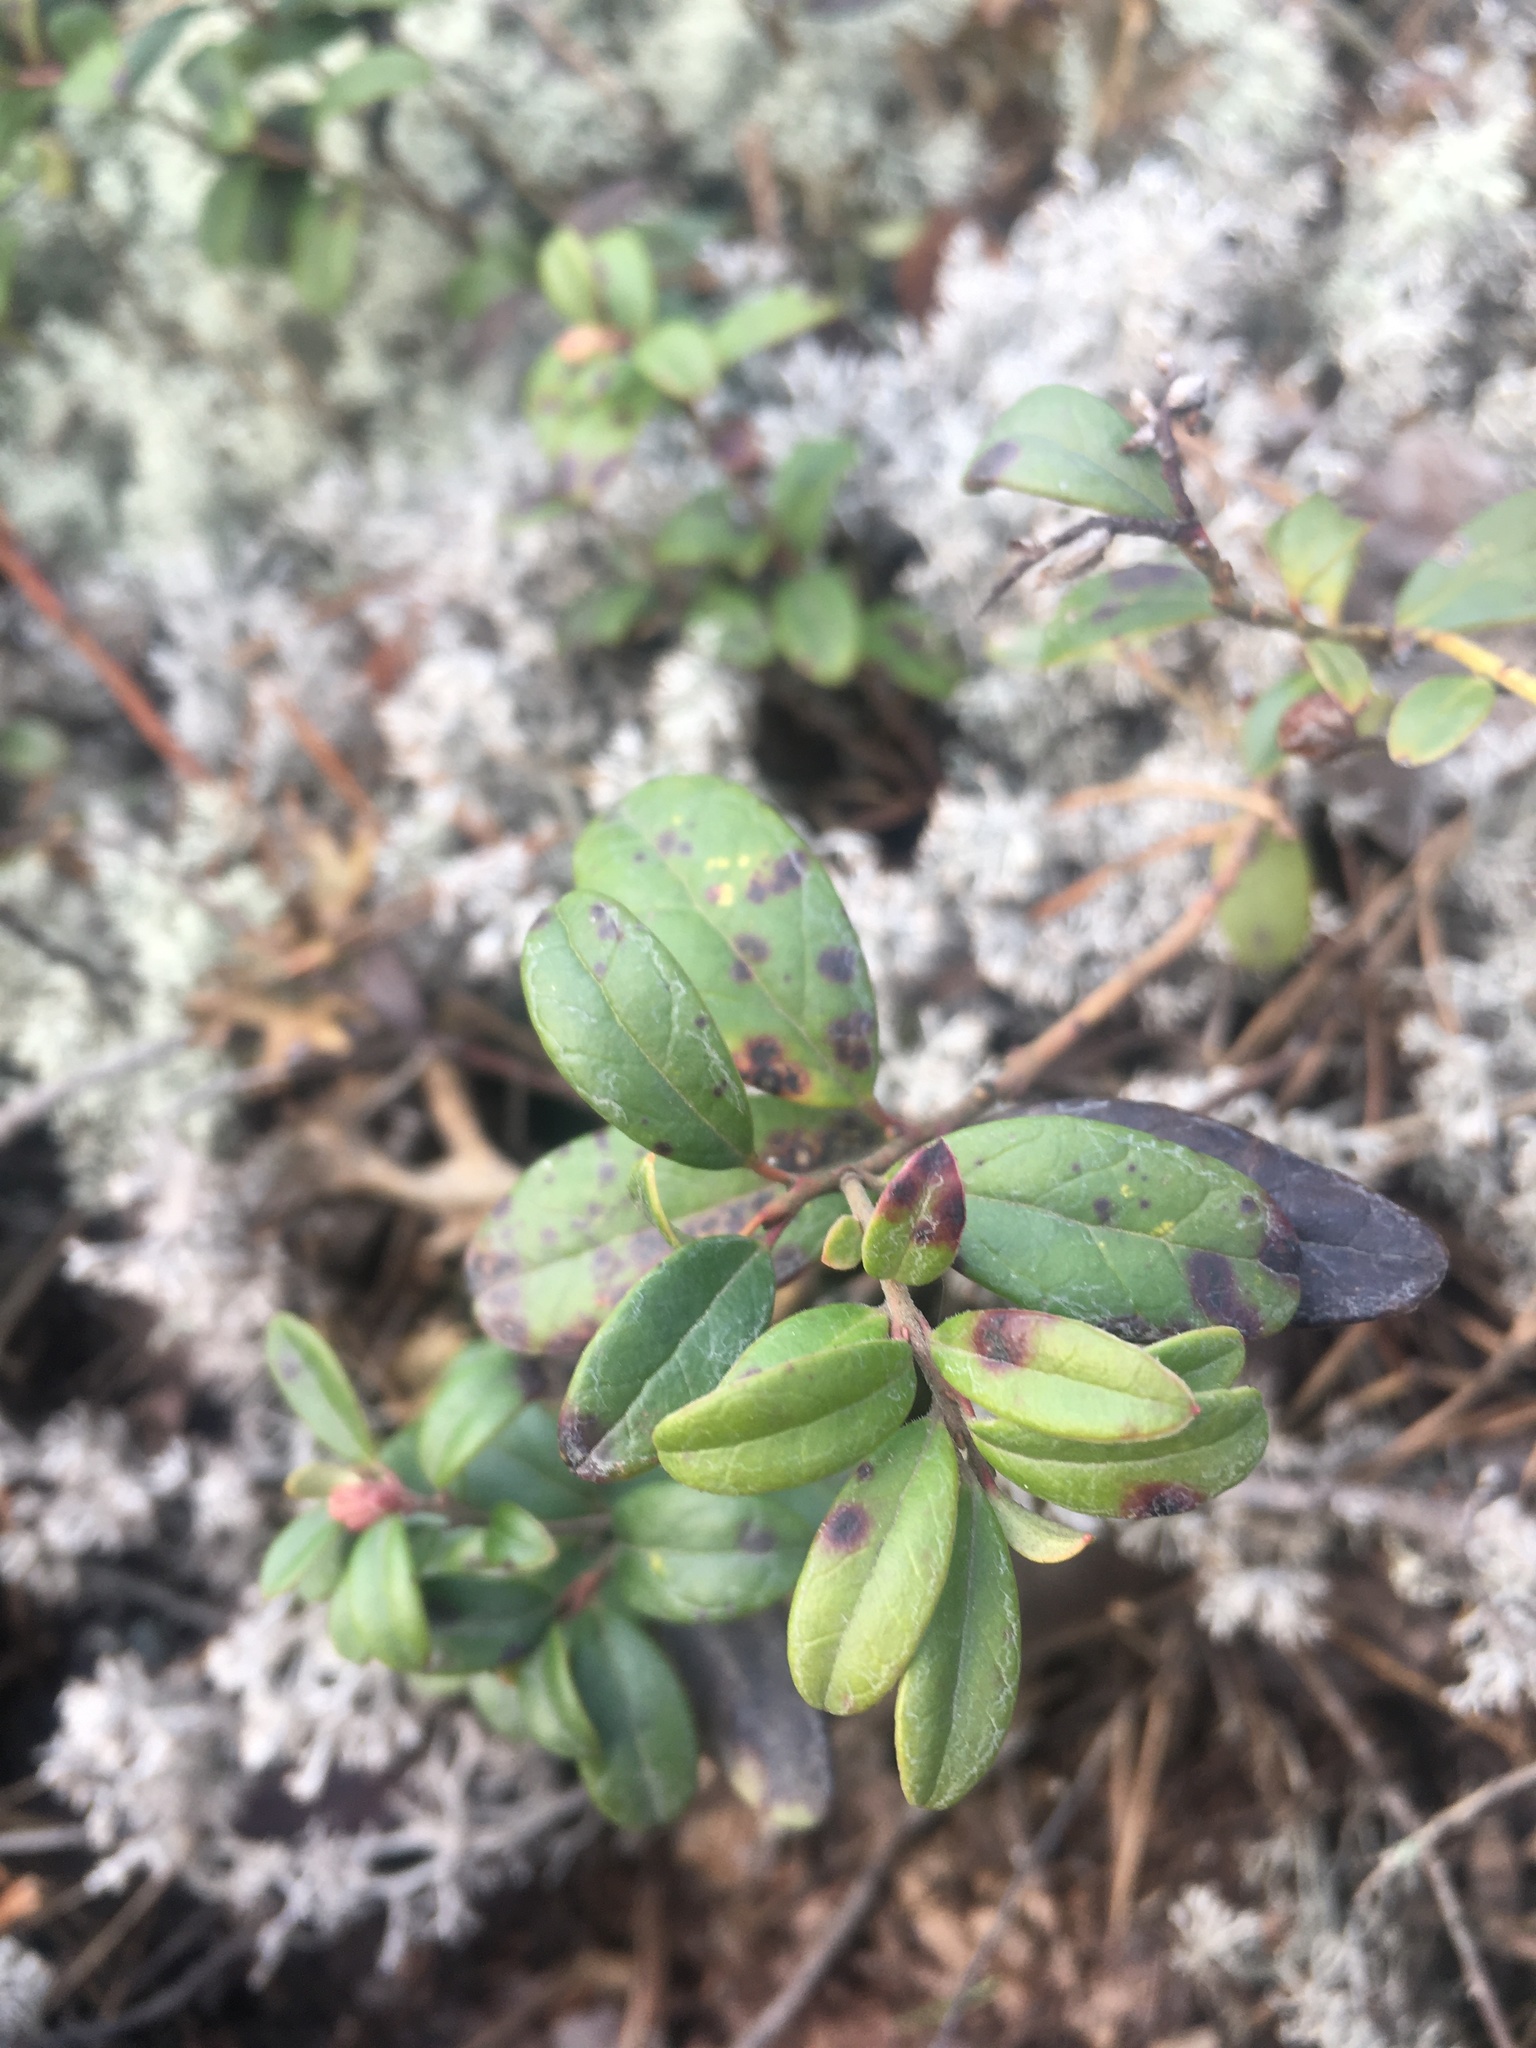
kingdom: Plantae
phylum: Tracheophyta
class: Magnoliopsida
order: Ericales
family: Ericaceae
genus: Vaccinium
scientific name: Vaccinium vitis-idaea
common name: Cowberry
